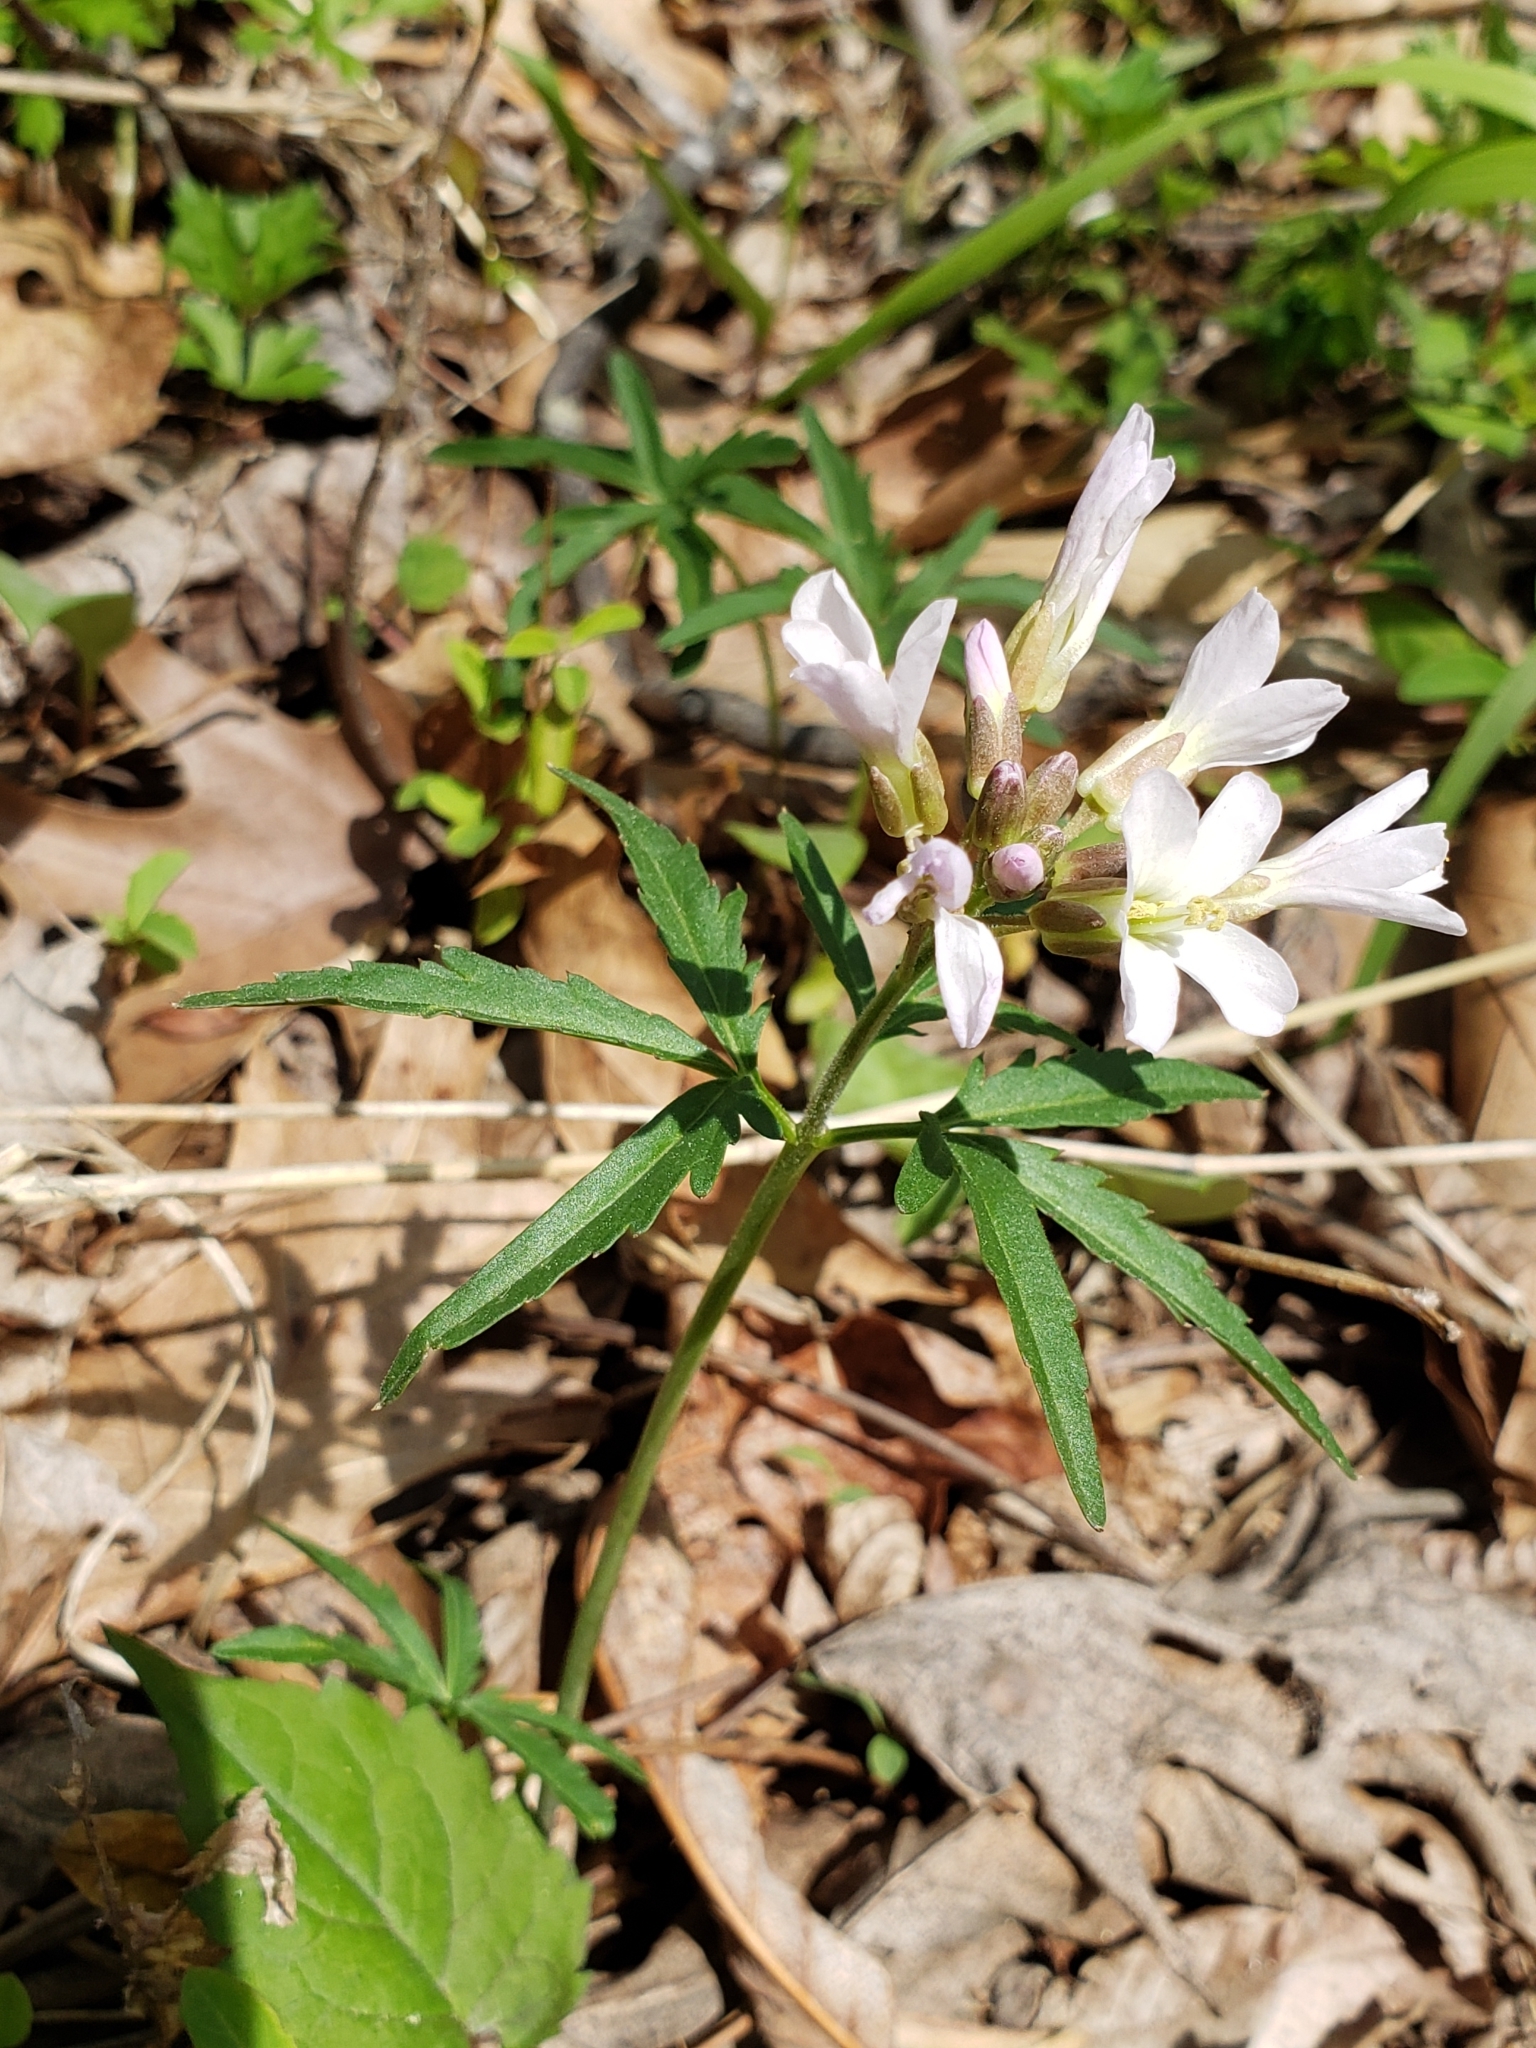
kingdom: Plantae
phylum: Tracheophyta
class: Magnoliopsida
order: Brassicales
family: Brassicaceae
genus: Cardamine
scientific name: Cardamine concatenata
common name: Cut-leaf toothcup
